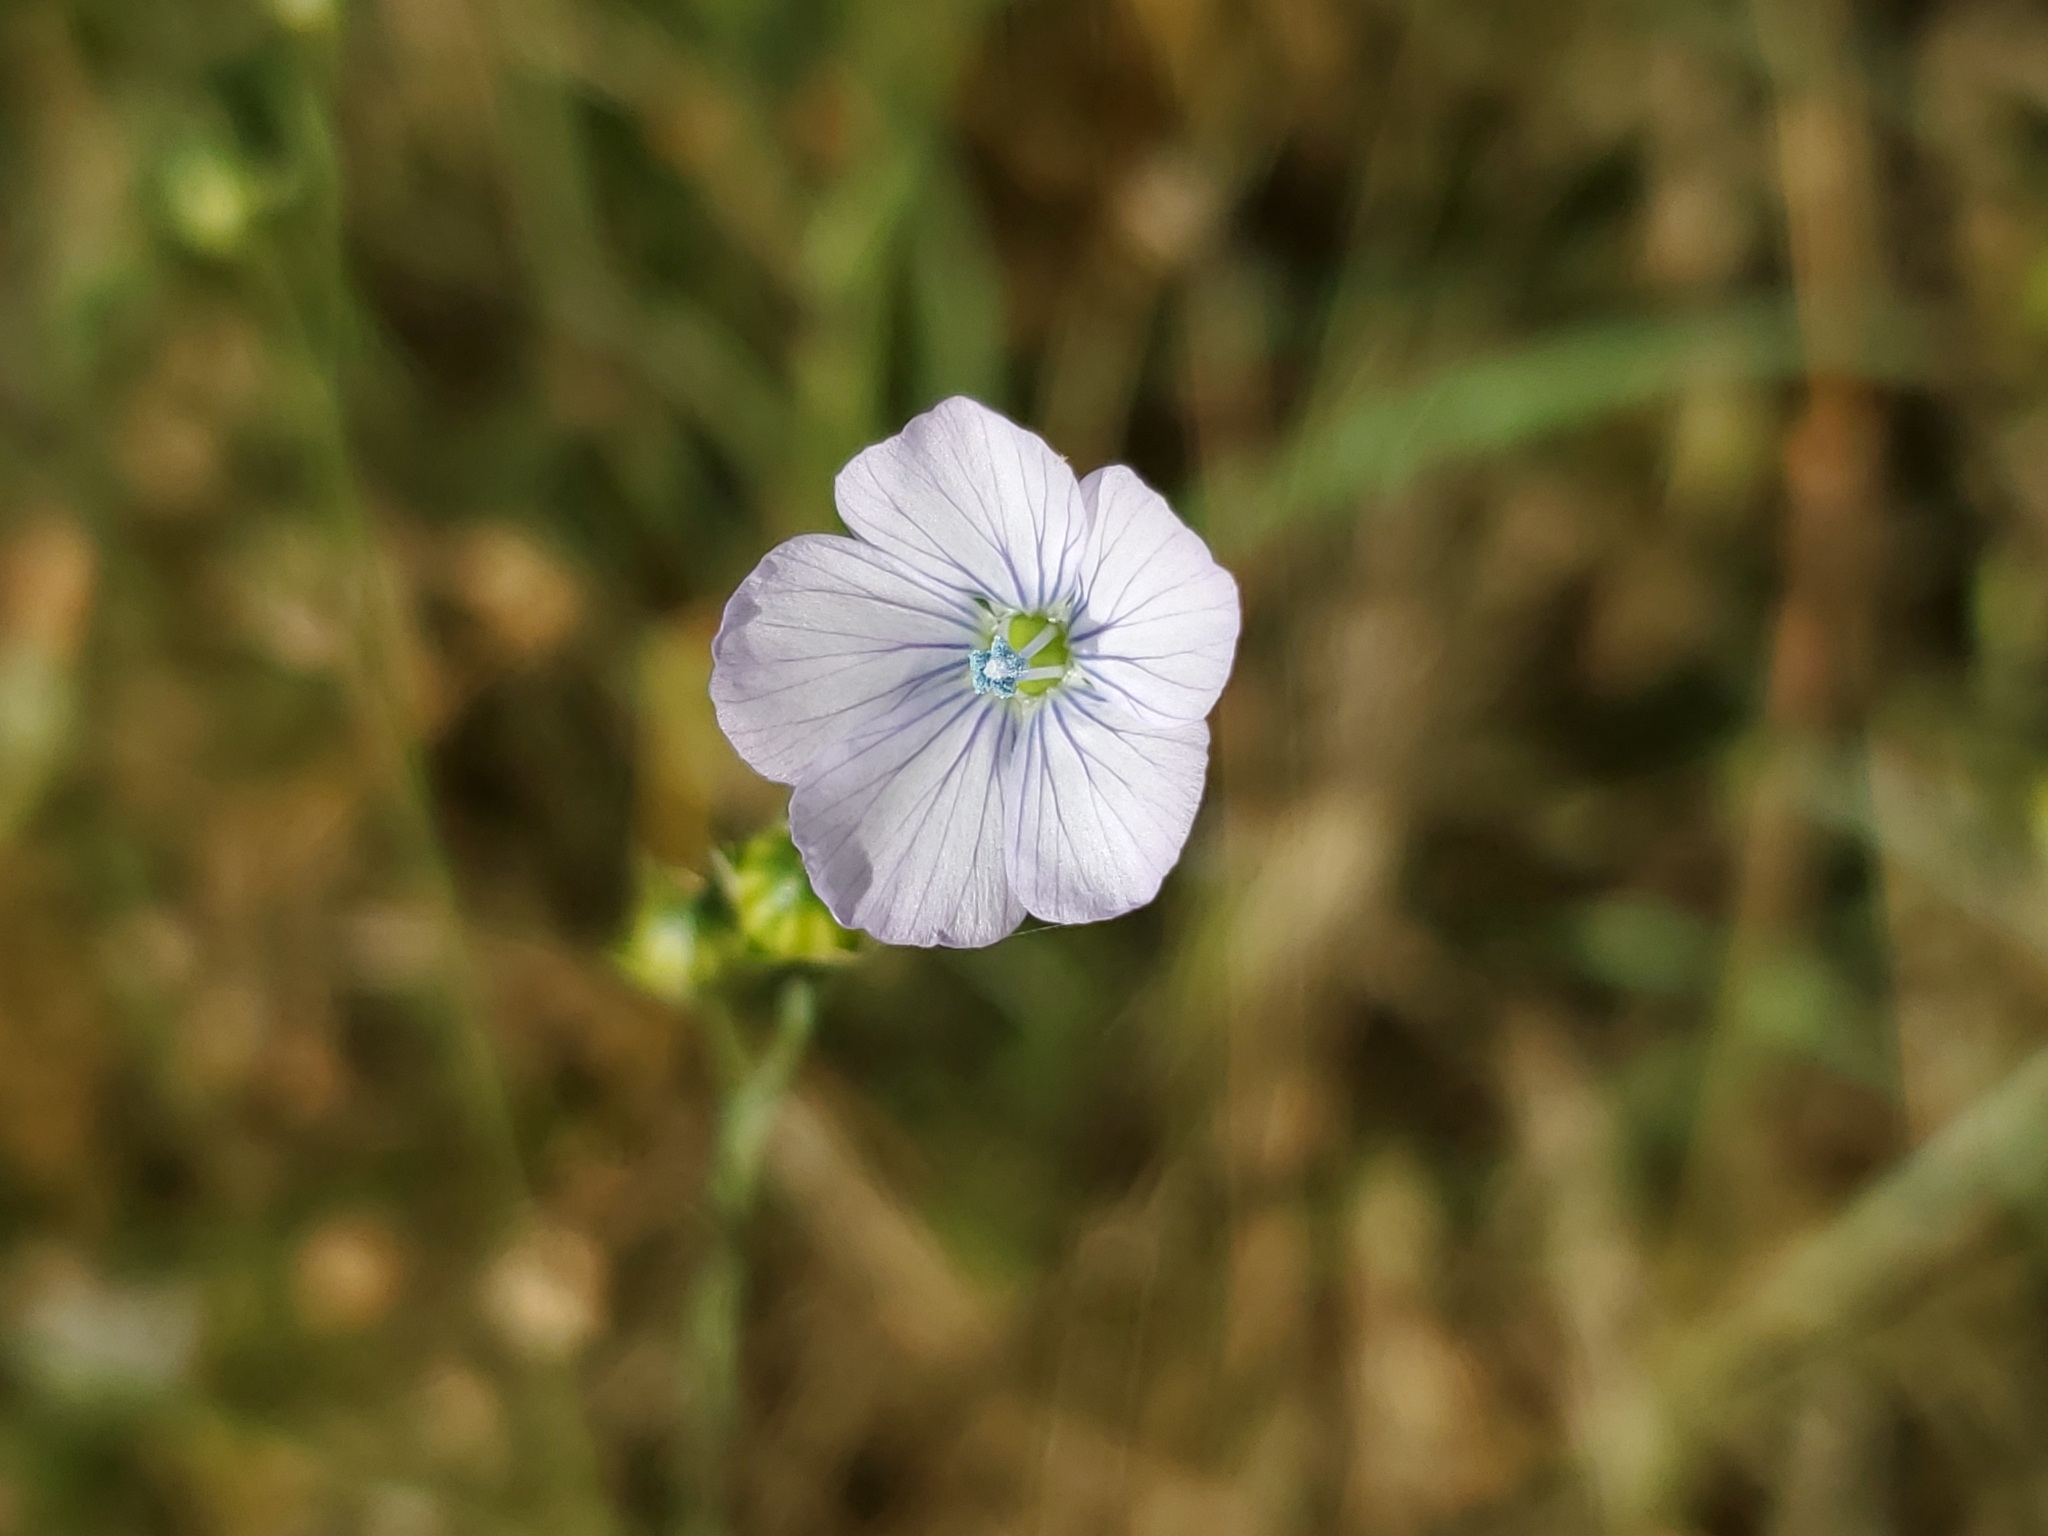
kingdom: Plantae
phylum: Tracheophyta
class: Magnoliopsida
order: Malpighiales
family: Linaceae
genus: Linum
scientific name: Linum bienne
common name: Pale flax
